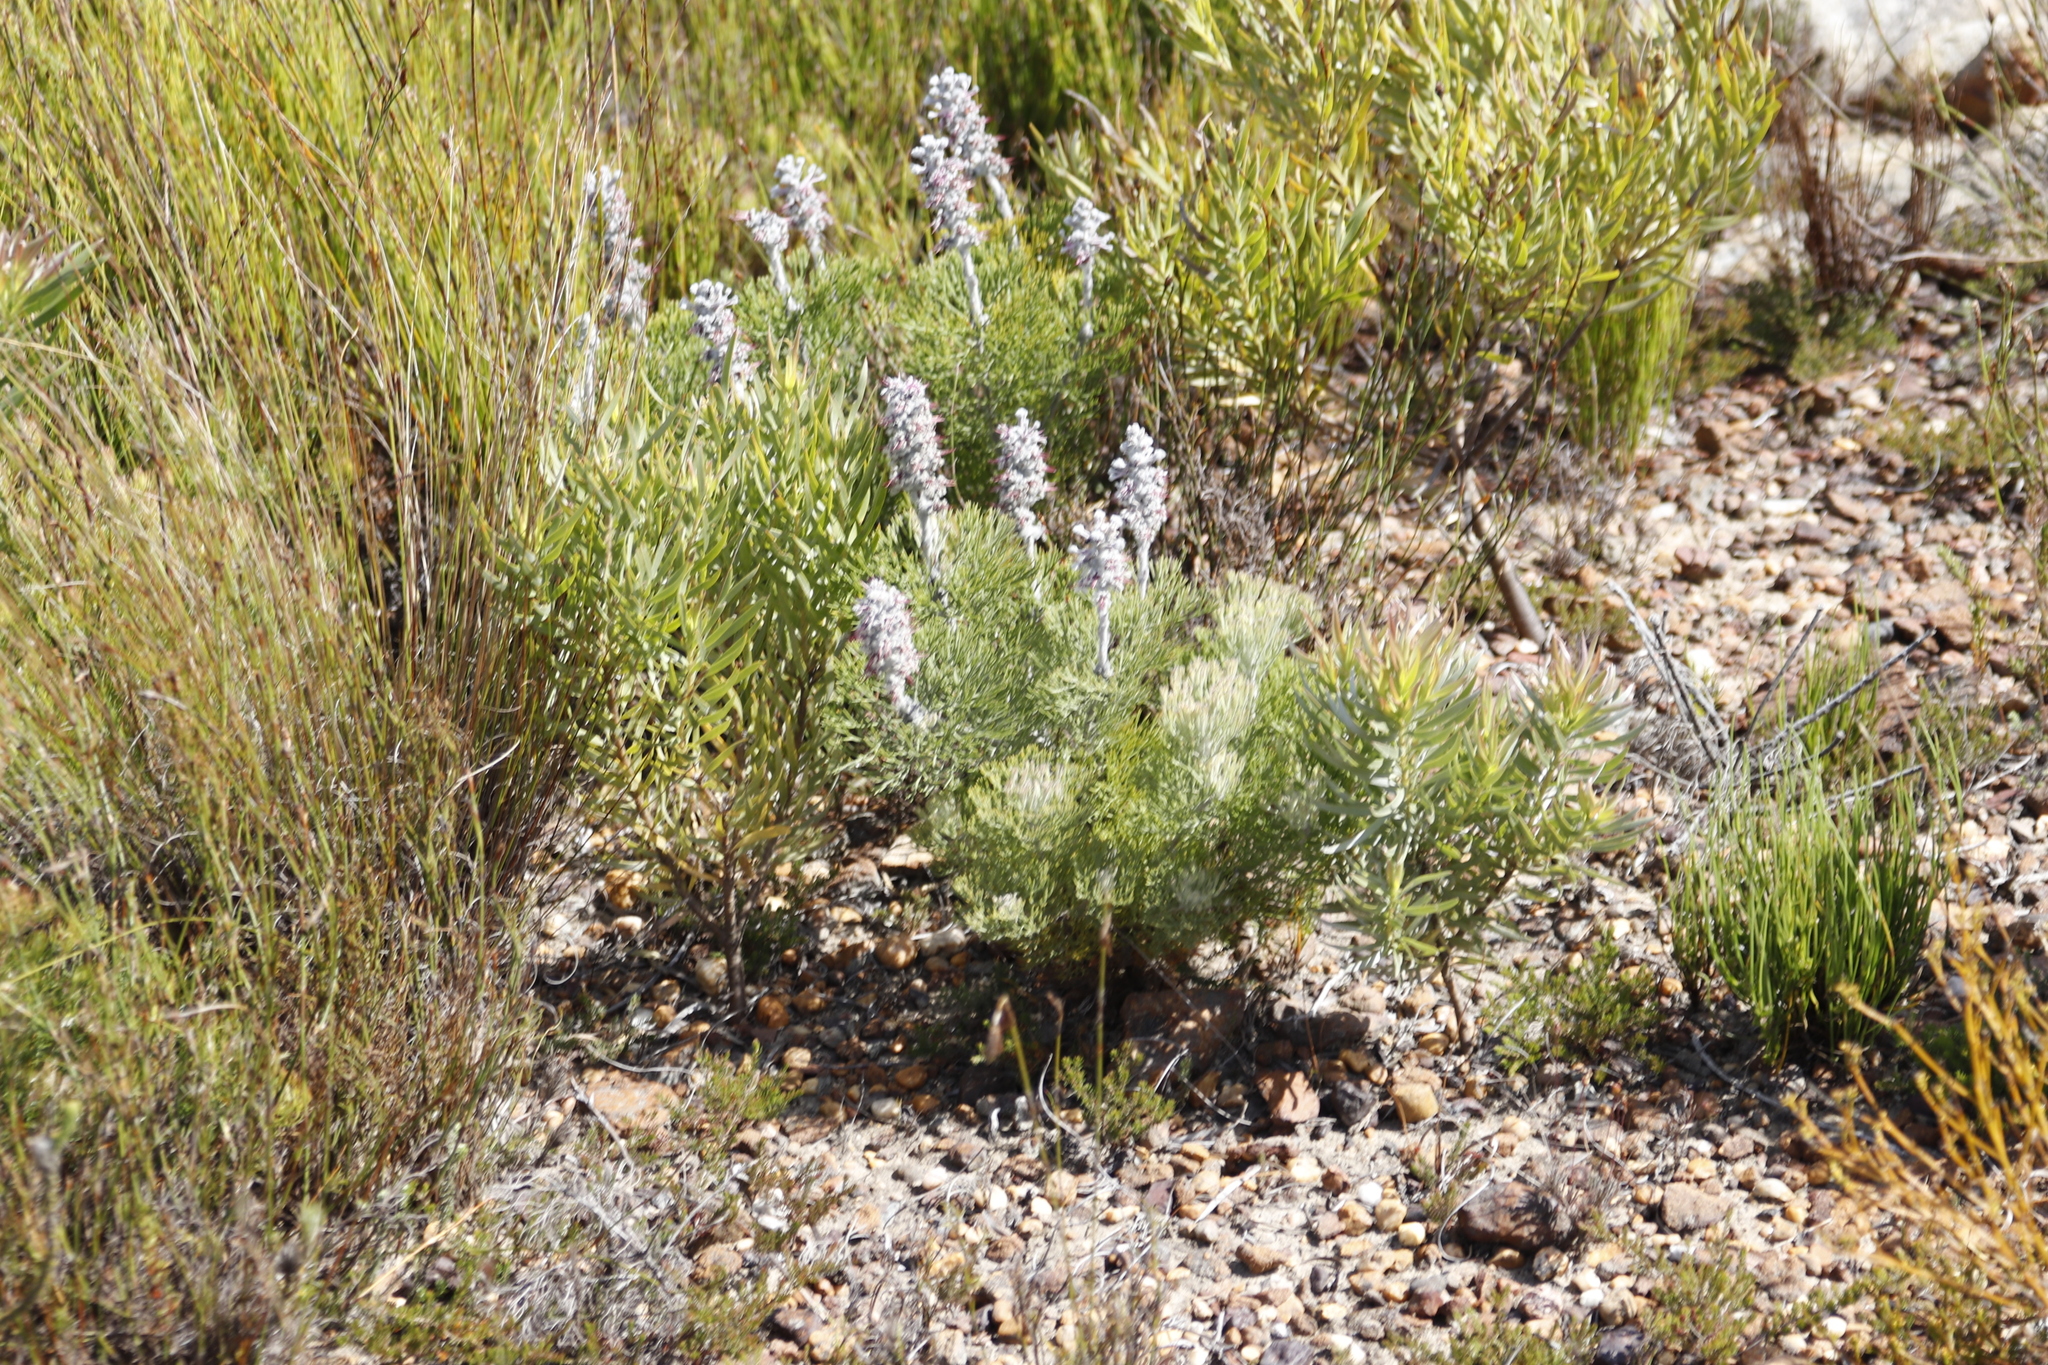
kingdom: Plantae
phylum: Tracheophyta
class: Magnoliopsida
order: Proteales
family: Proteaceae
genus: Paranomus
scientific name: Paranomus bolusii
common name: Overberg sceptre
